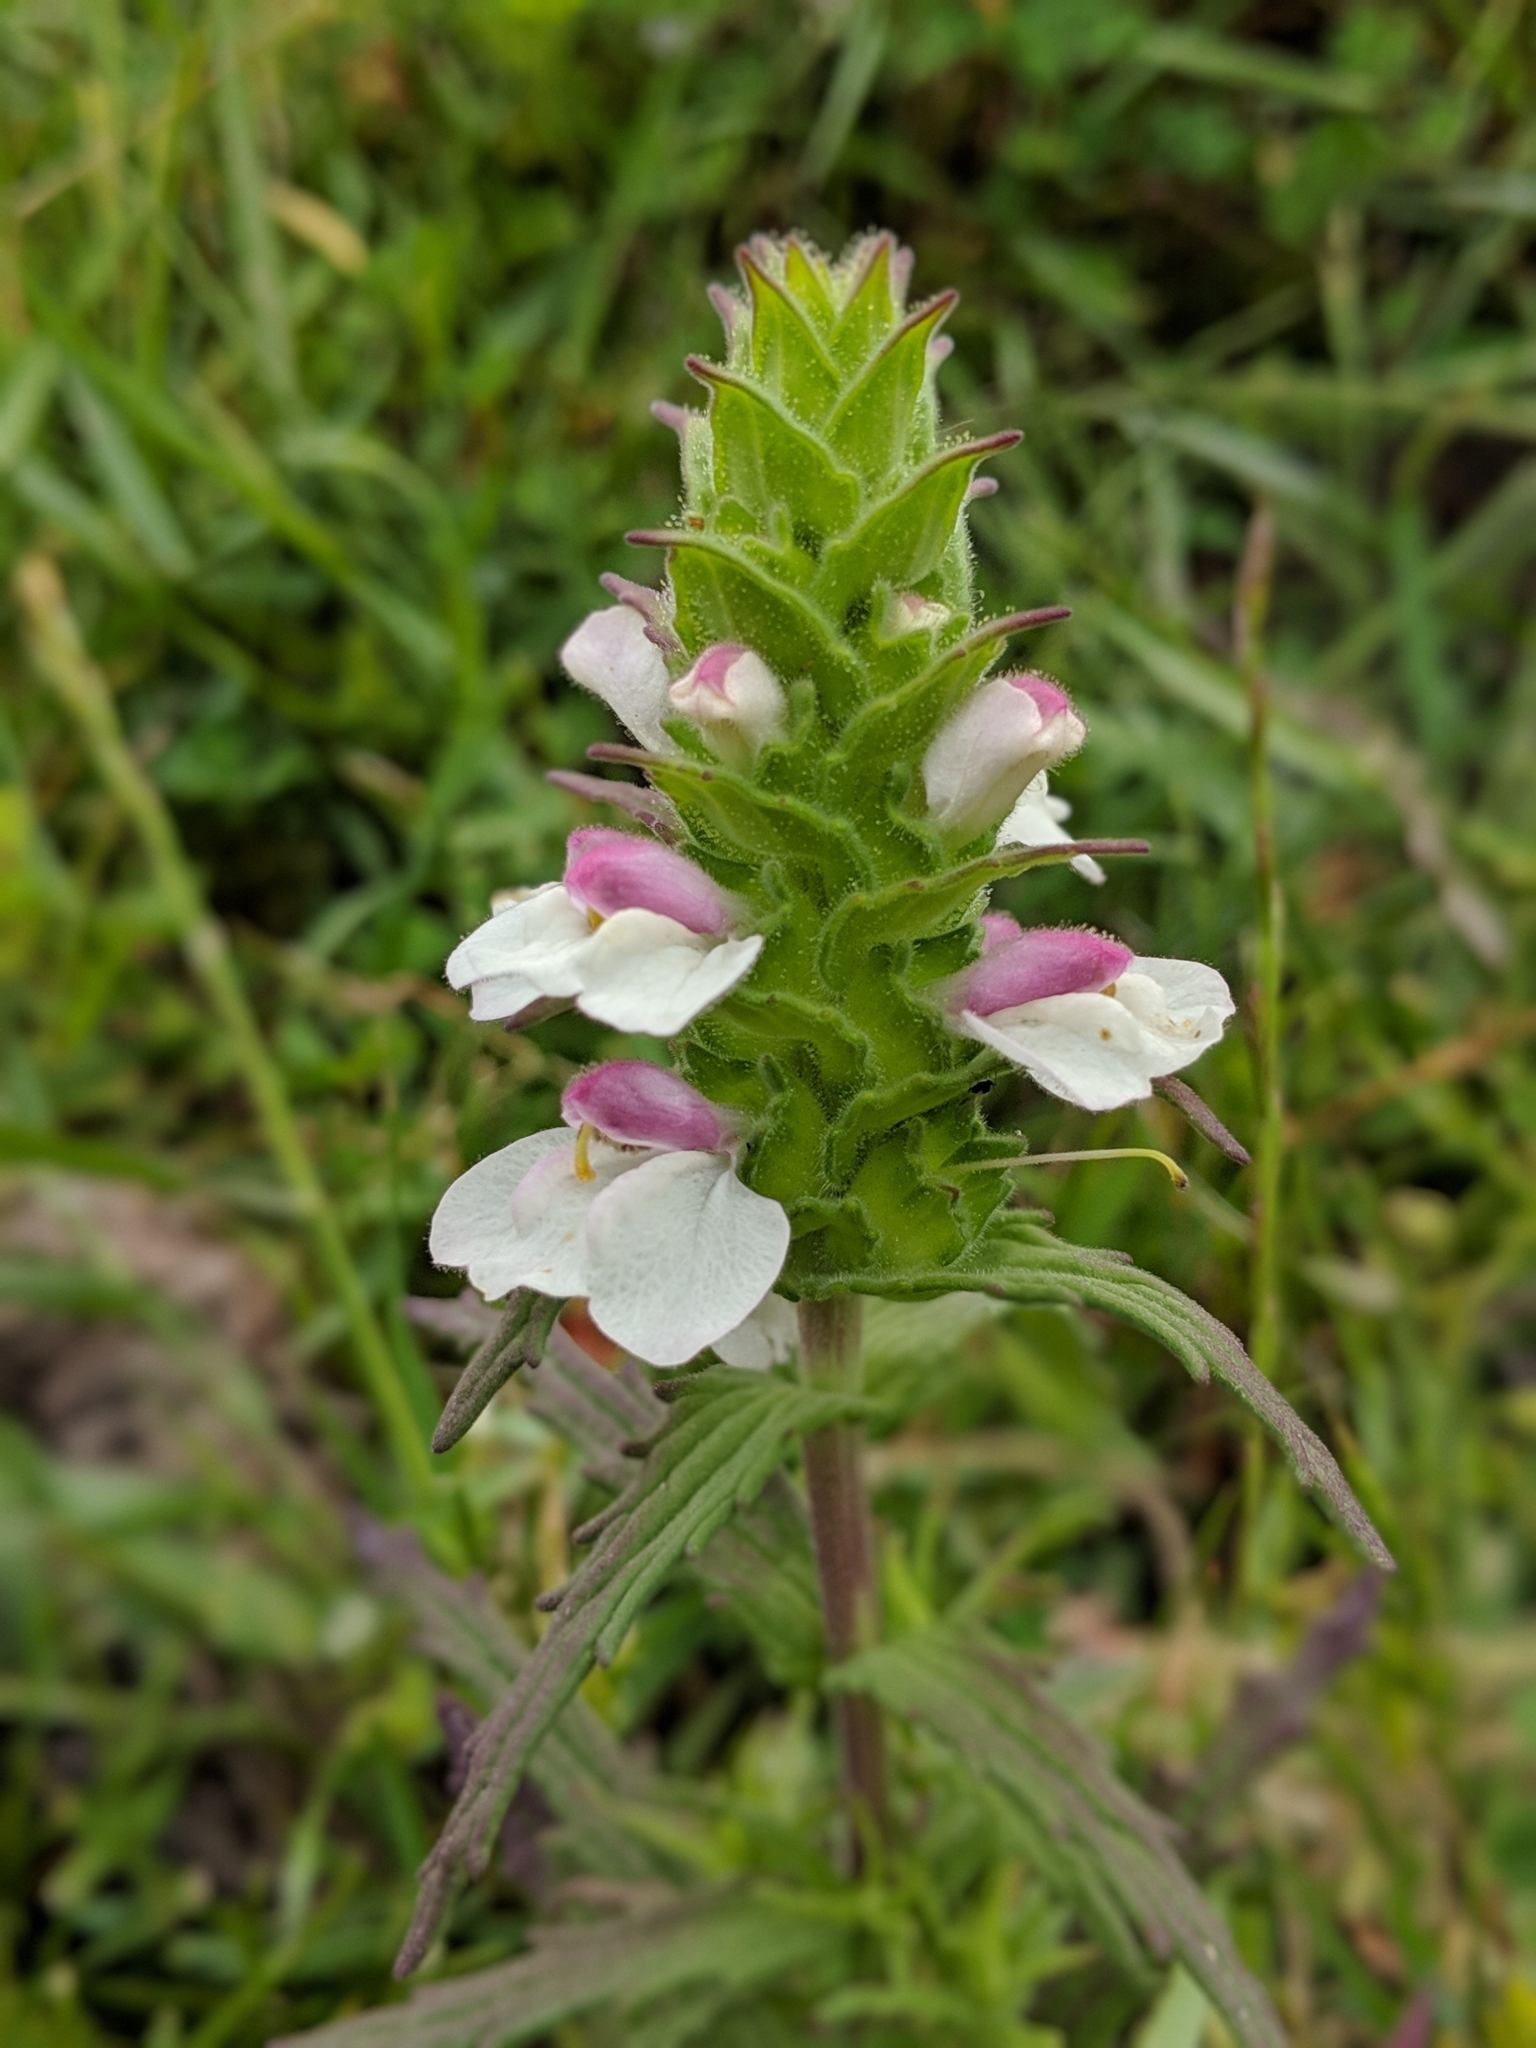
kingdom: Plantae
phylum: Tracheophyta
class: Magnoliopsida
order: Lamiales
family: Orobanchaceae
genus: Bellardia
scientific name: Bellardia trixago
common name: Mediterranean lineseed
